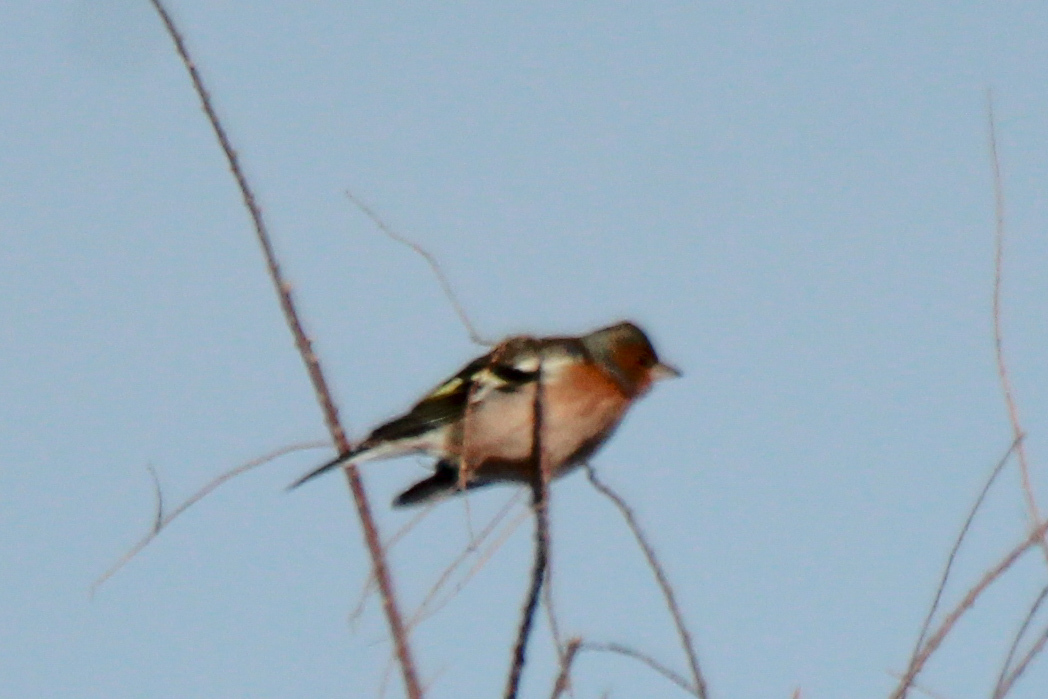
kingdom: Animalia
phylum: Chordata
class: Aves
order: Passeriformes
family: Fringillidae
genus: Fringilla
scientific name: Fringilla coelebs
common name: Common chaffinch
